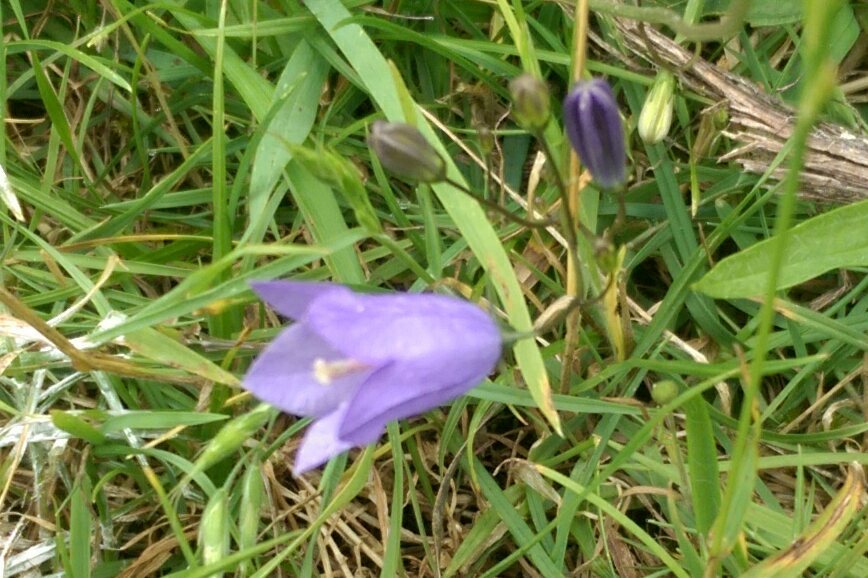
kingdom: Plantae
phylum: Tracheophyta
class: Magnoliopsida
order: Asterales
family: Campanulaceae
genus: Campanula
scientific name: Campanula rotundifolia
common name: Harebell
